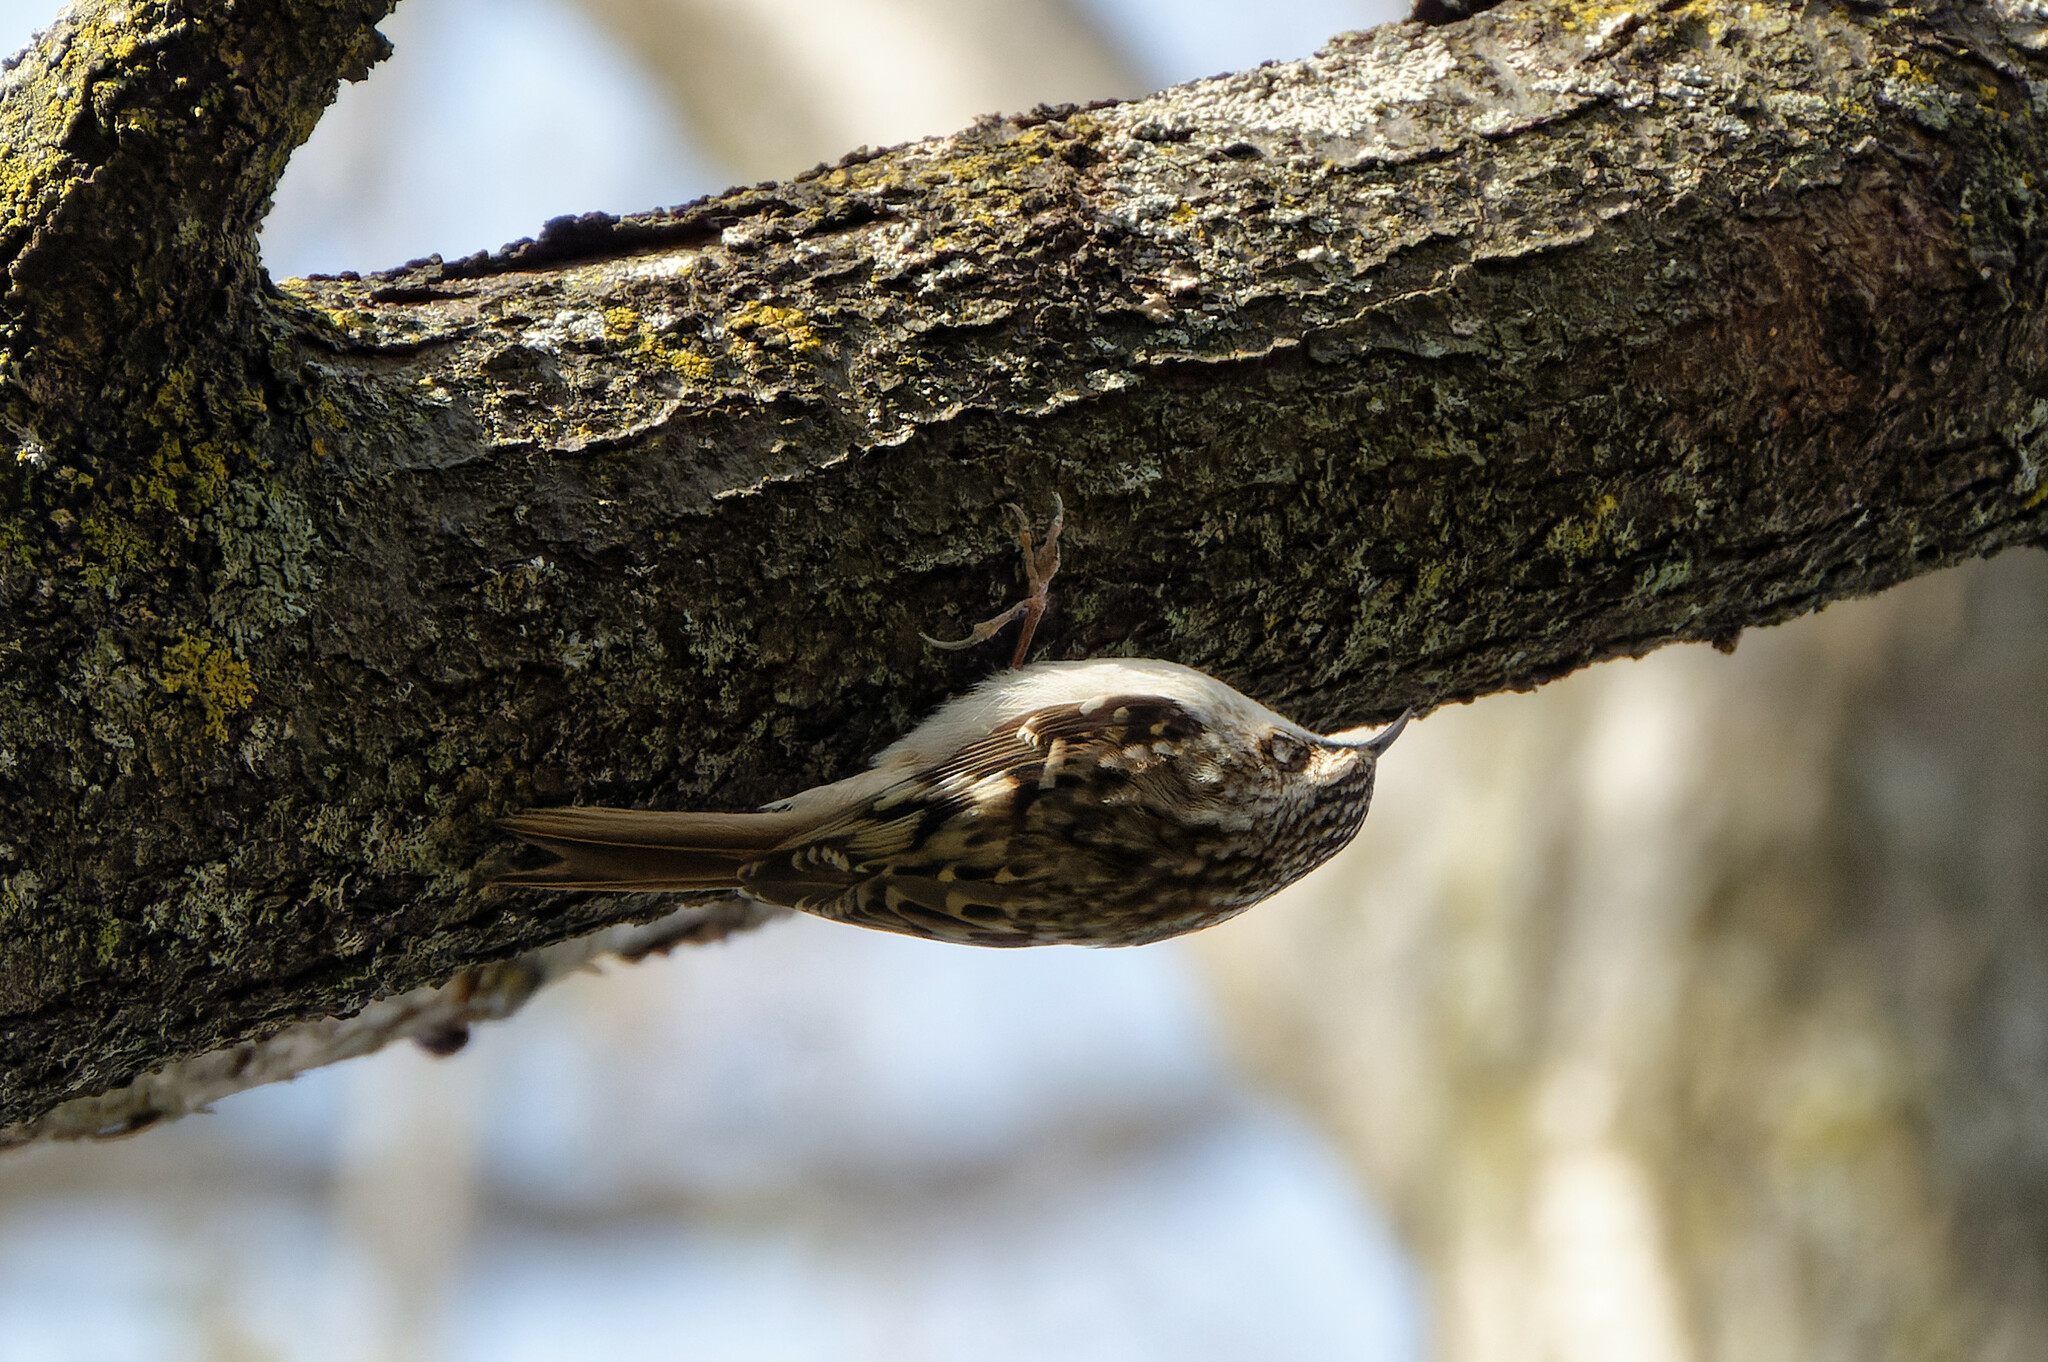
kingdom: Animalia
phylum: Chordata
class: Aves
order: Passeriformes
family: Certhiidae
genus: Certhia
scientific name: Certhia americana
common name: Brown creeper
